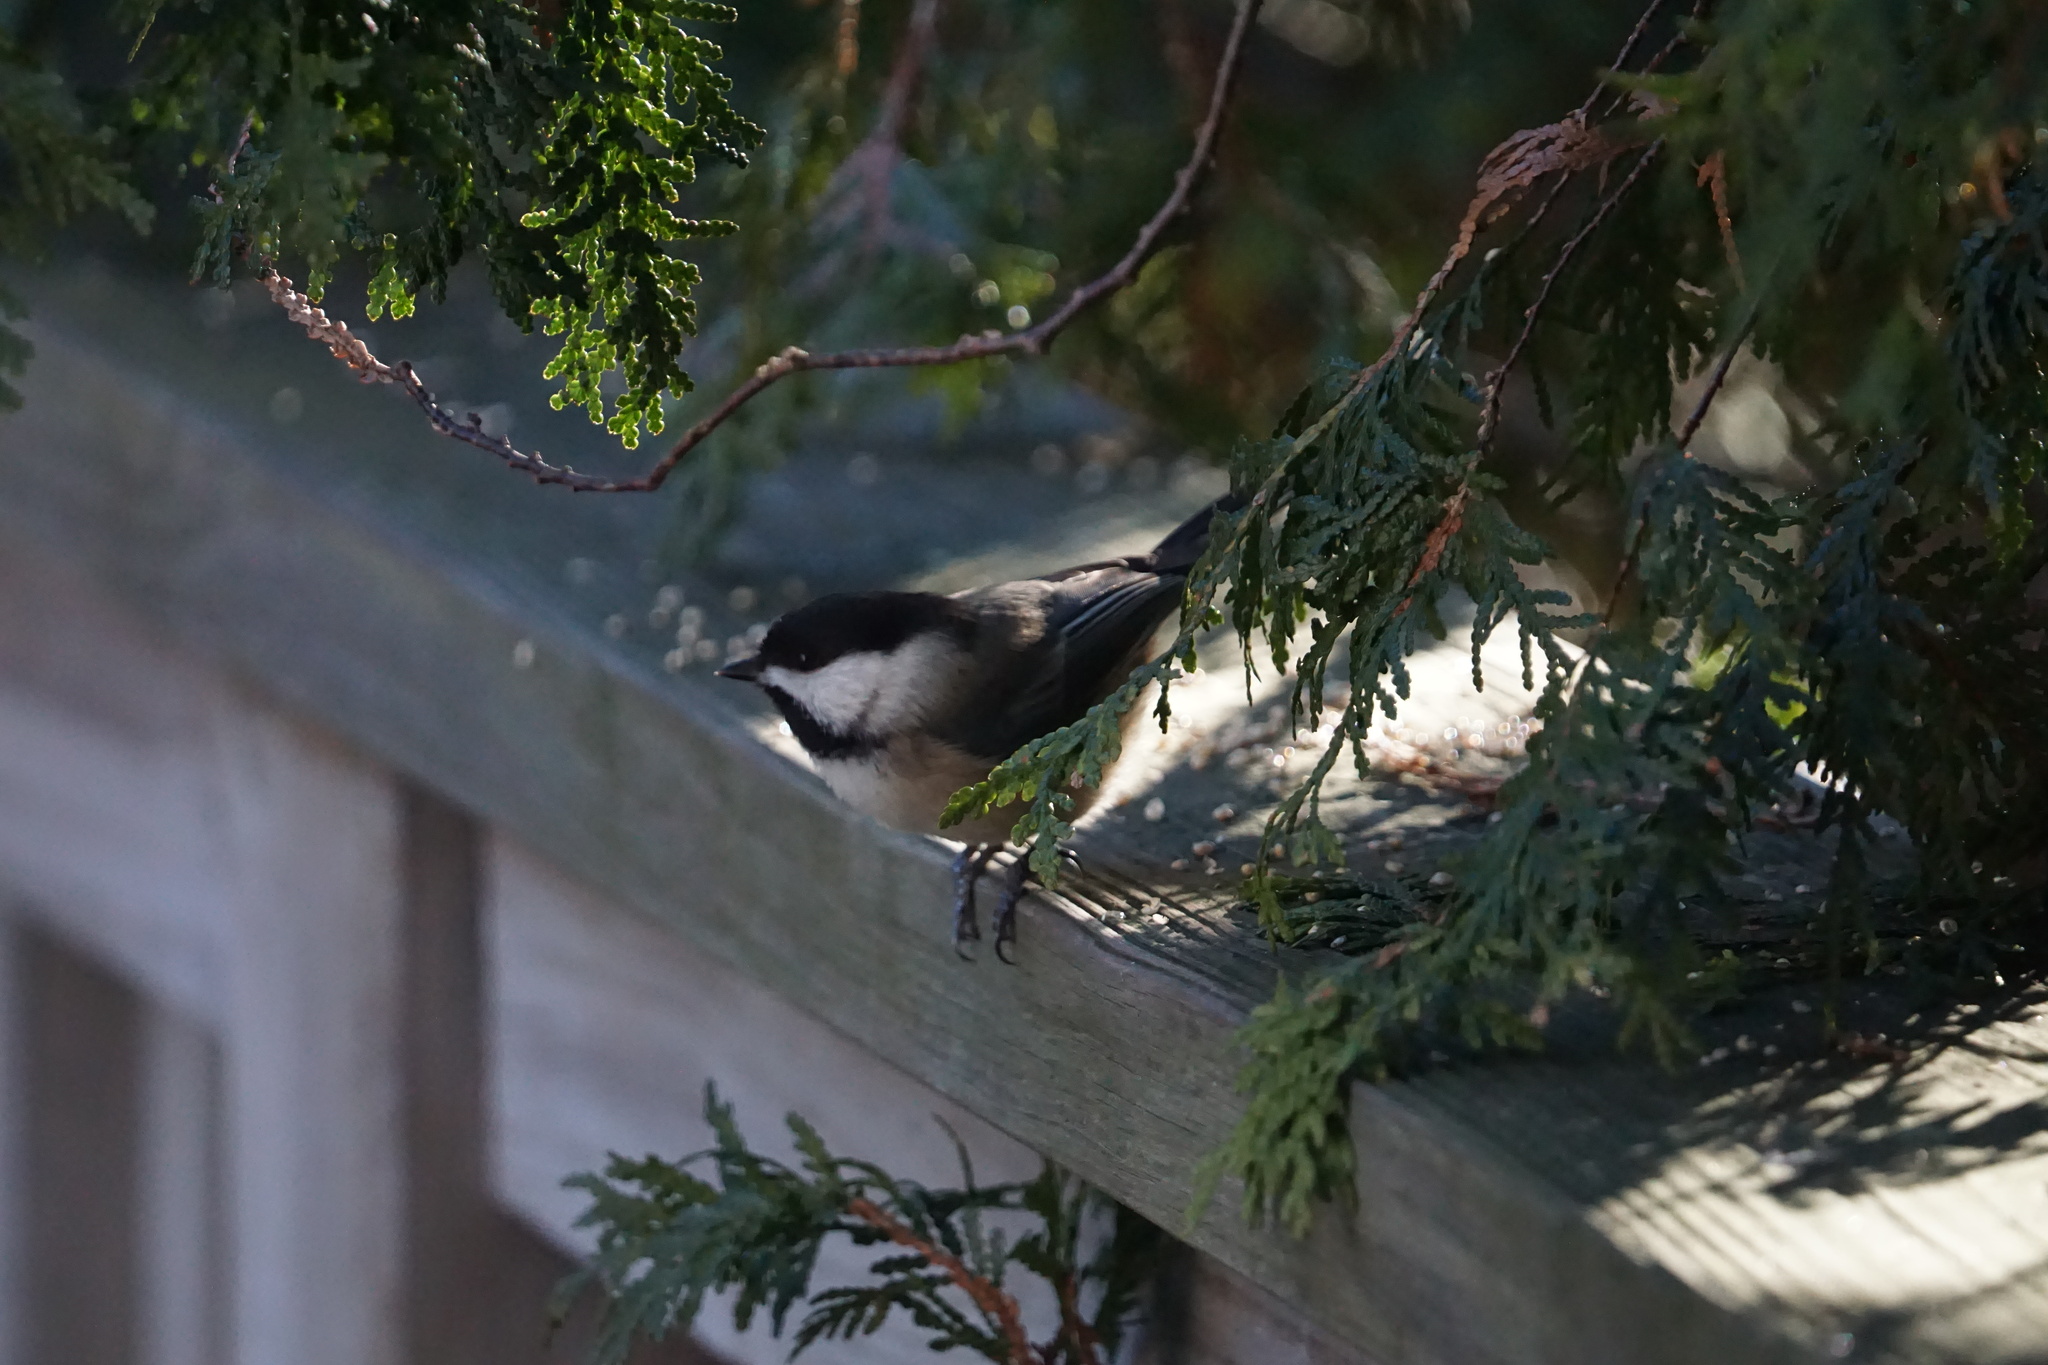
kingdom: Animalia
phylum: Chordata
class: Aves
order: Passeriformes
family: Paridae
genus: Poecile
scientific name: Poecile atricapillus
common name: Black-capped chickadee
